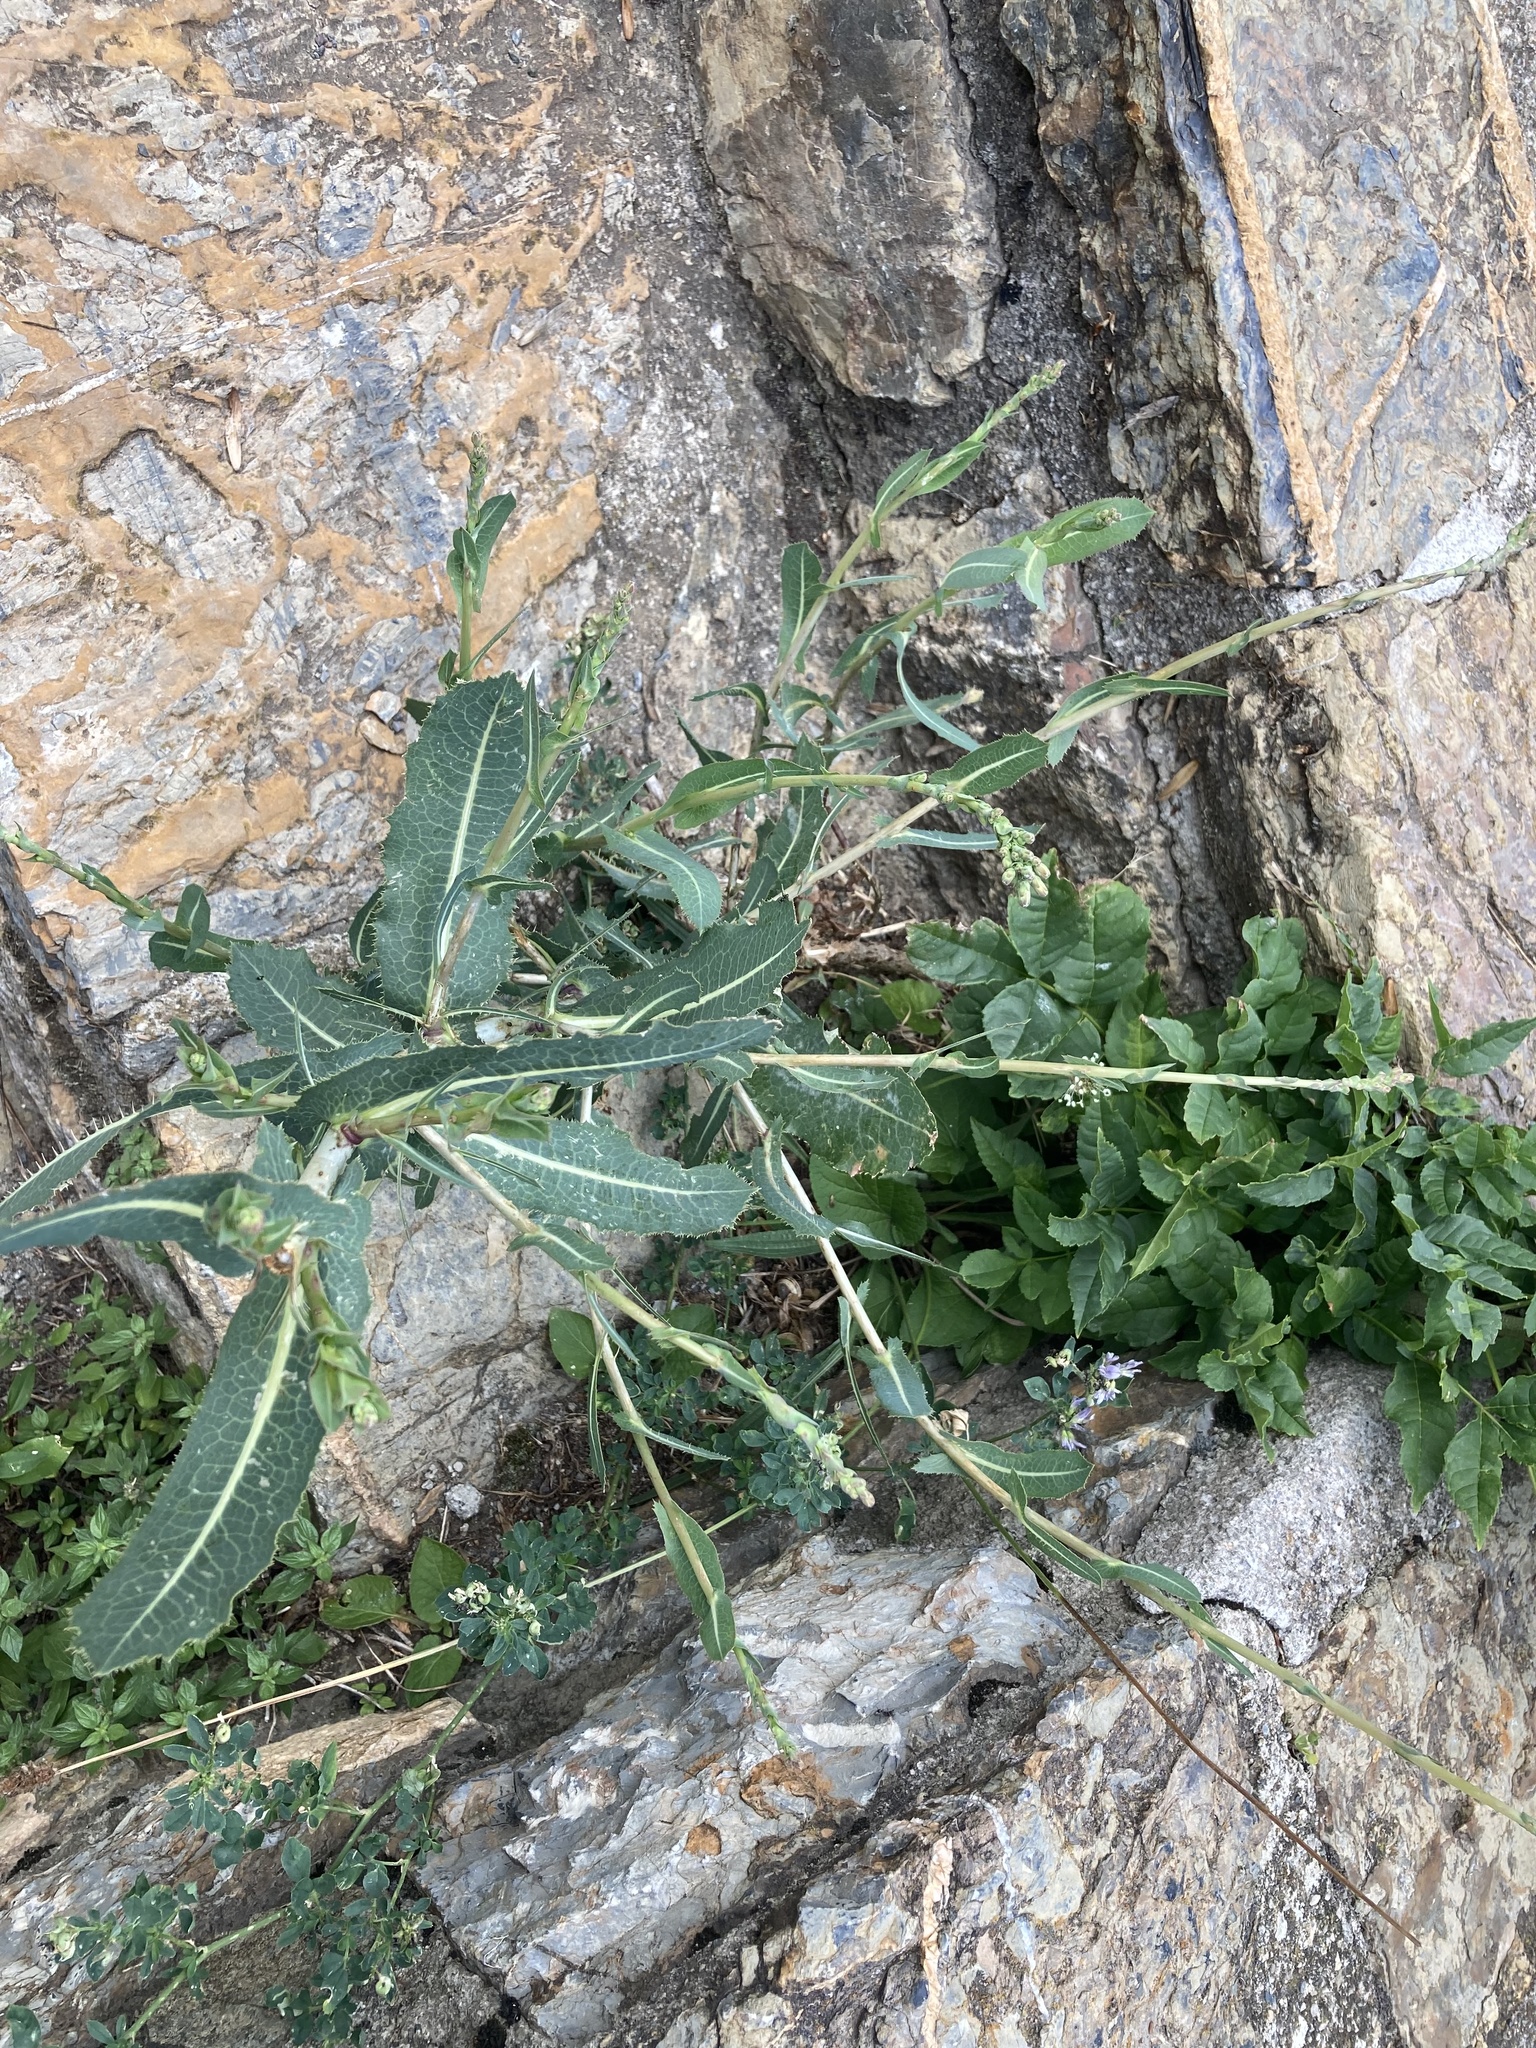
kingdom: Plantae
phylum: Tracheophyta
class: Magnoliopsida
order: Asterales
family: Asteraceae
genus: Lactuca
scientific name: Lactuca serriola
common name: Prickly lettuce
